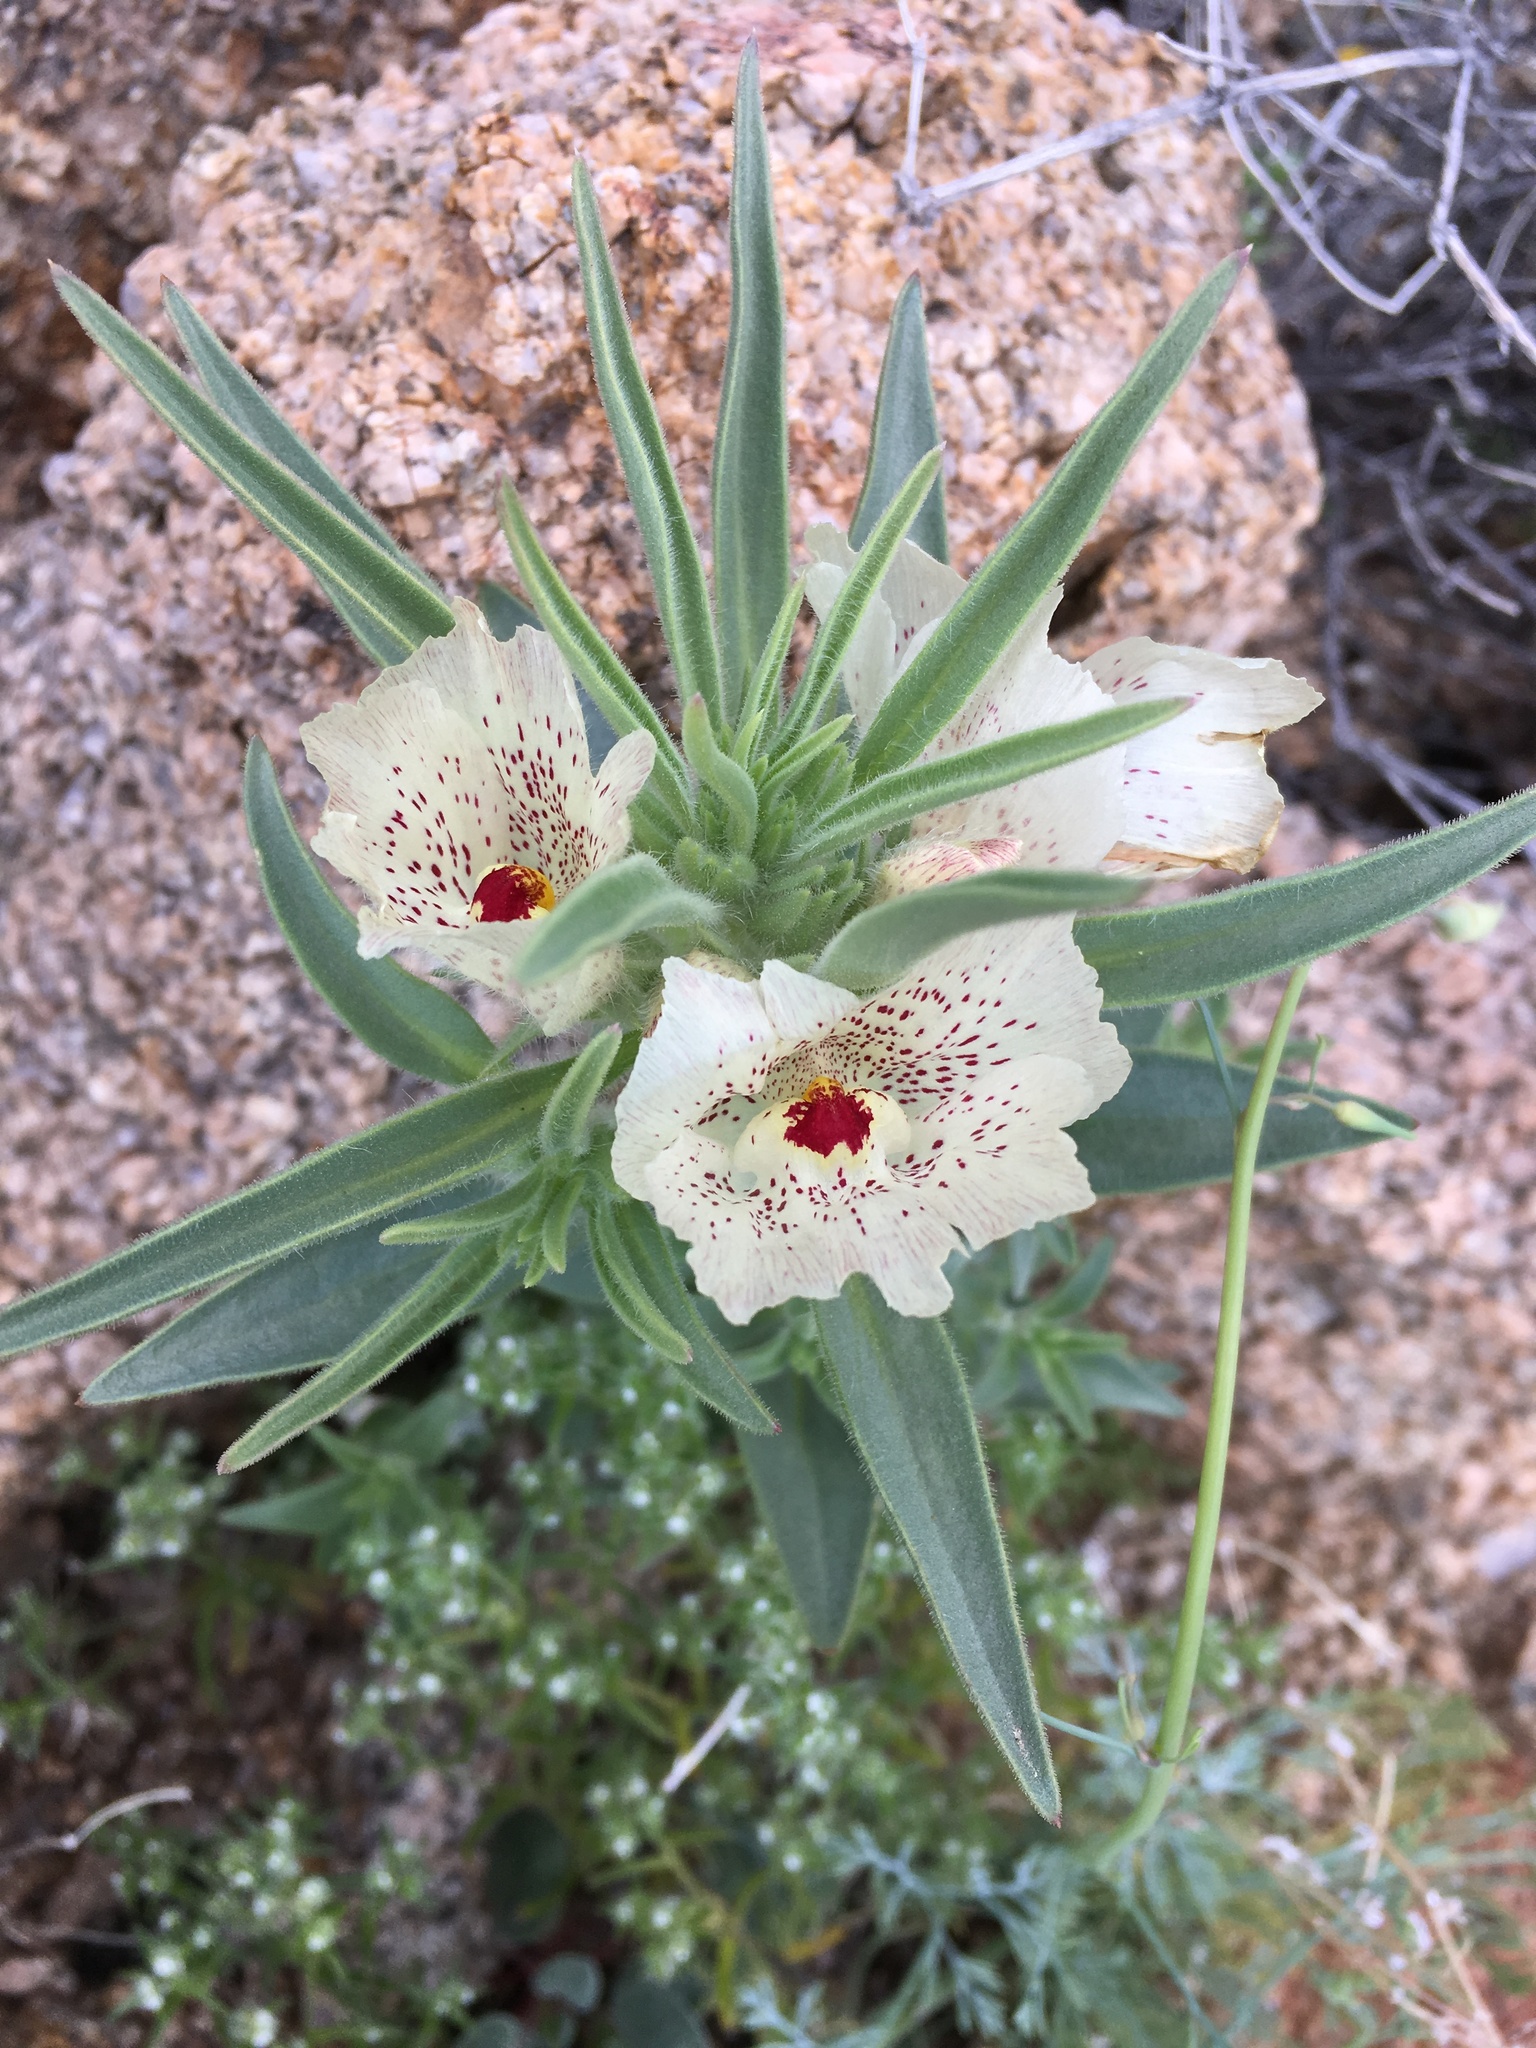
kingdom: Plantae
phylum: Tracheophyta
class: Magnoliopsida
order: Lamiales
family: Plantaginaceae
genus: Mohavea
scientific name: Mohavea confertiflora
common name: Ghost flower
